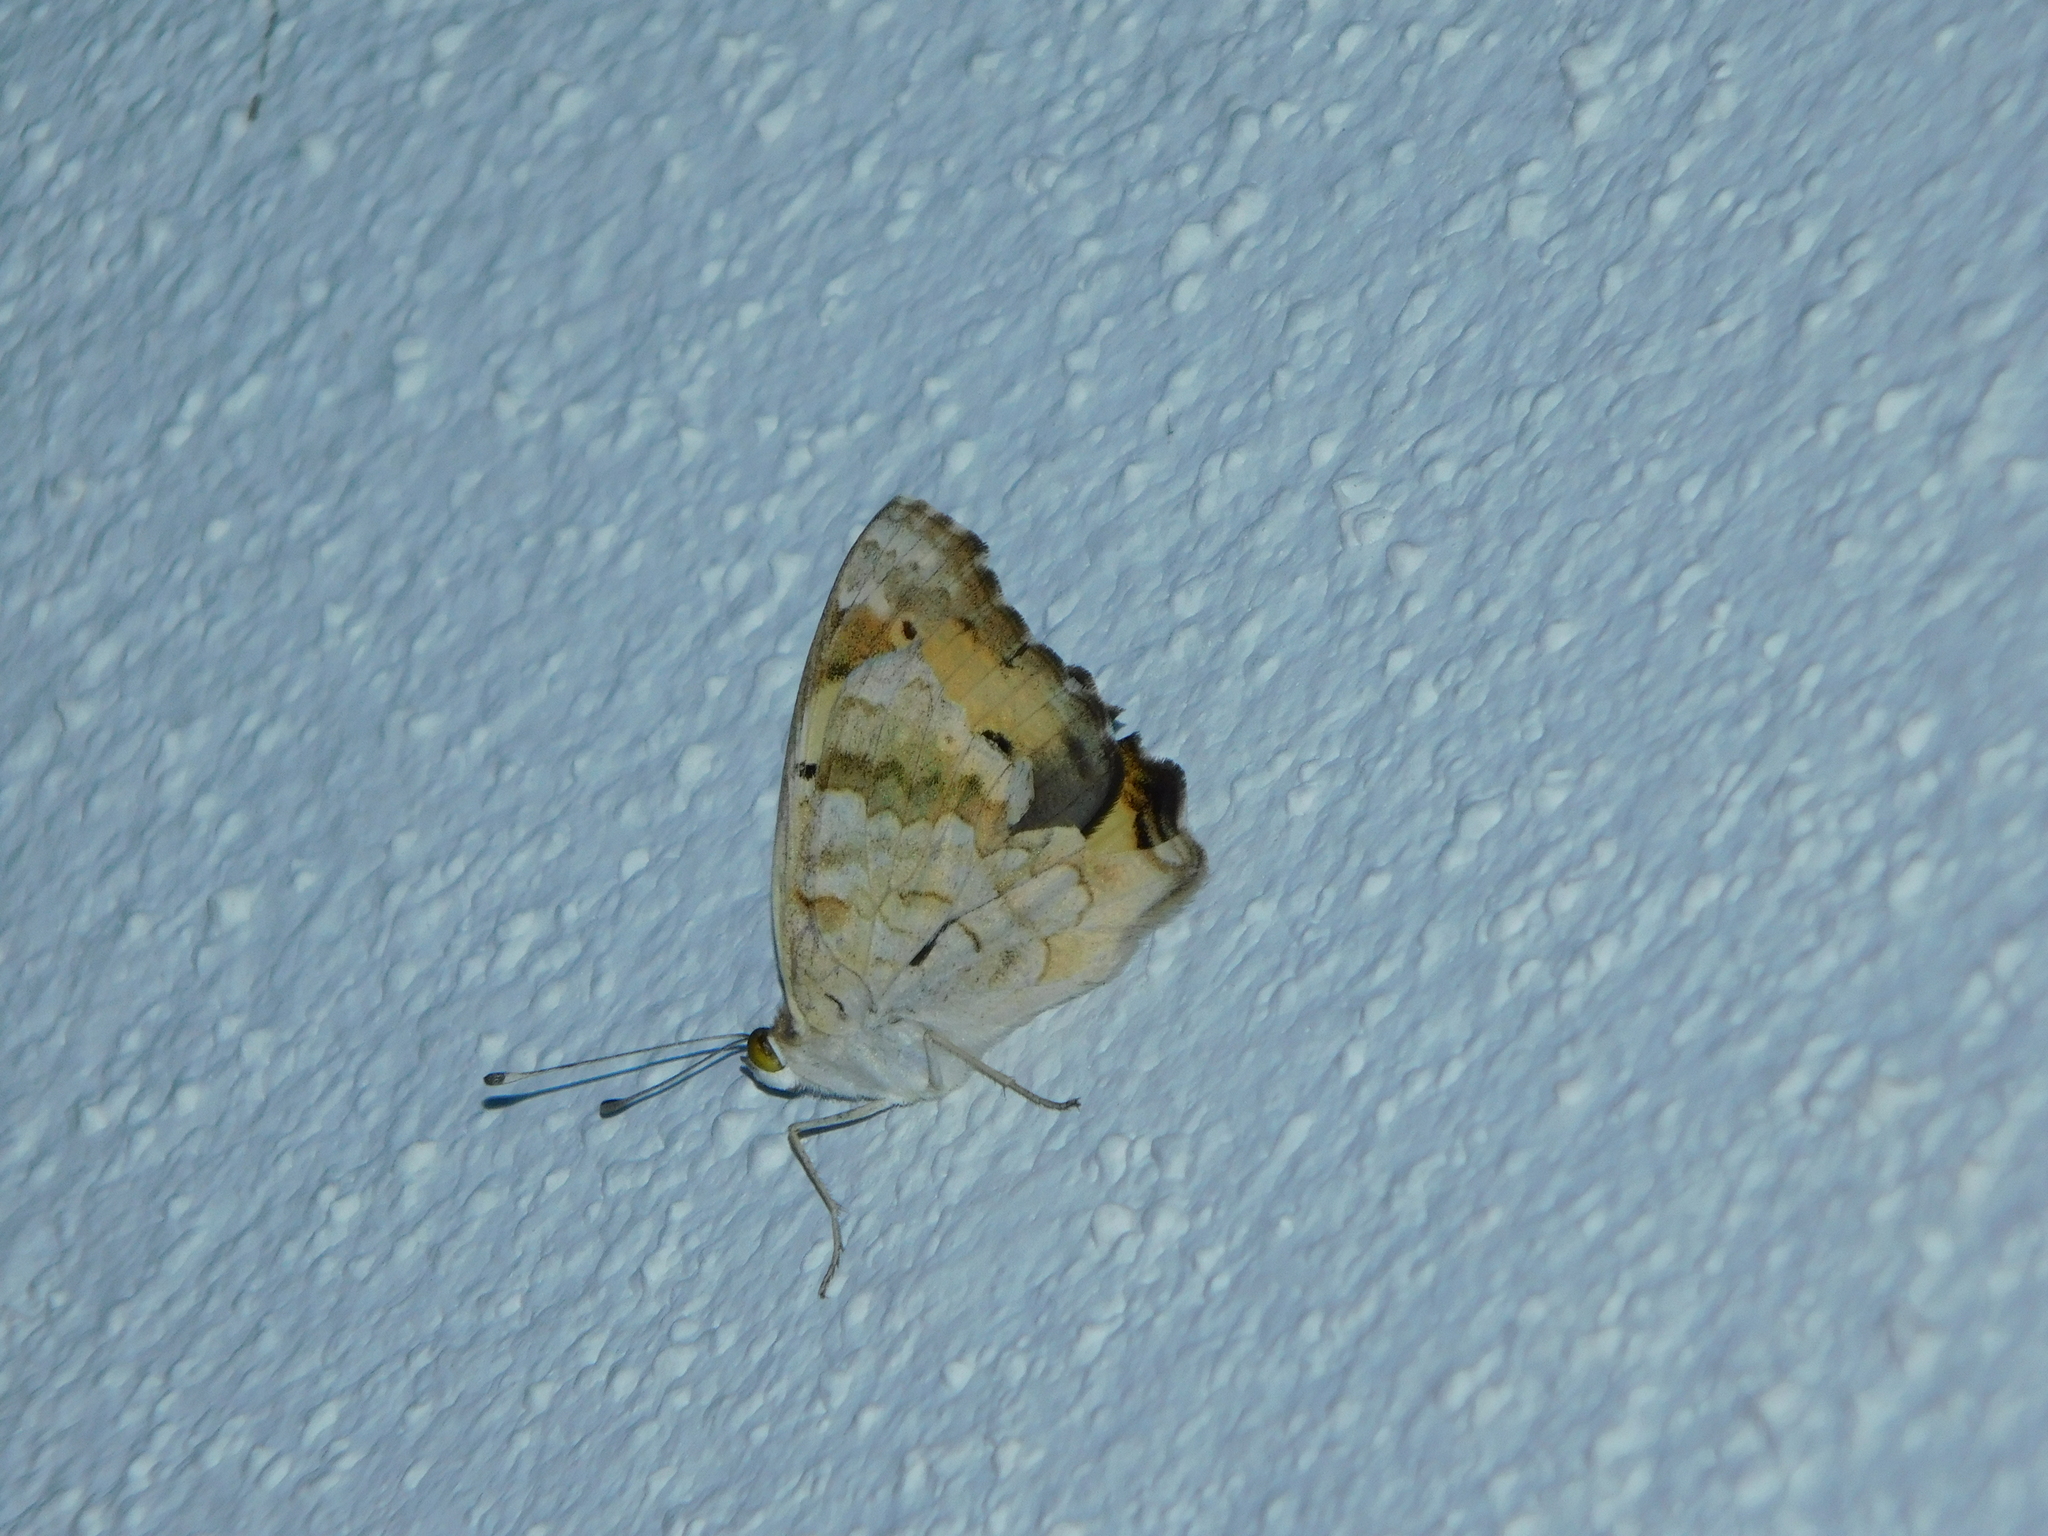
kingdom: Animalia
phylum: Arthropoda
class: Insecta
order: Lepidoptera
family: Nymphalidae
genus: Junonia
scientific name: Junonia hierta
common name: Yellow pansy
